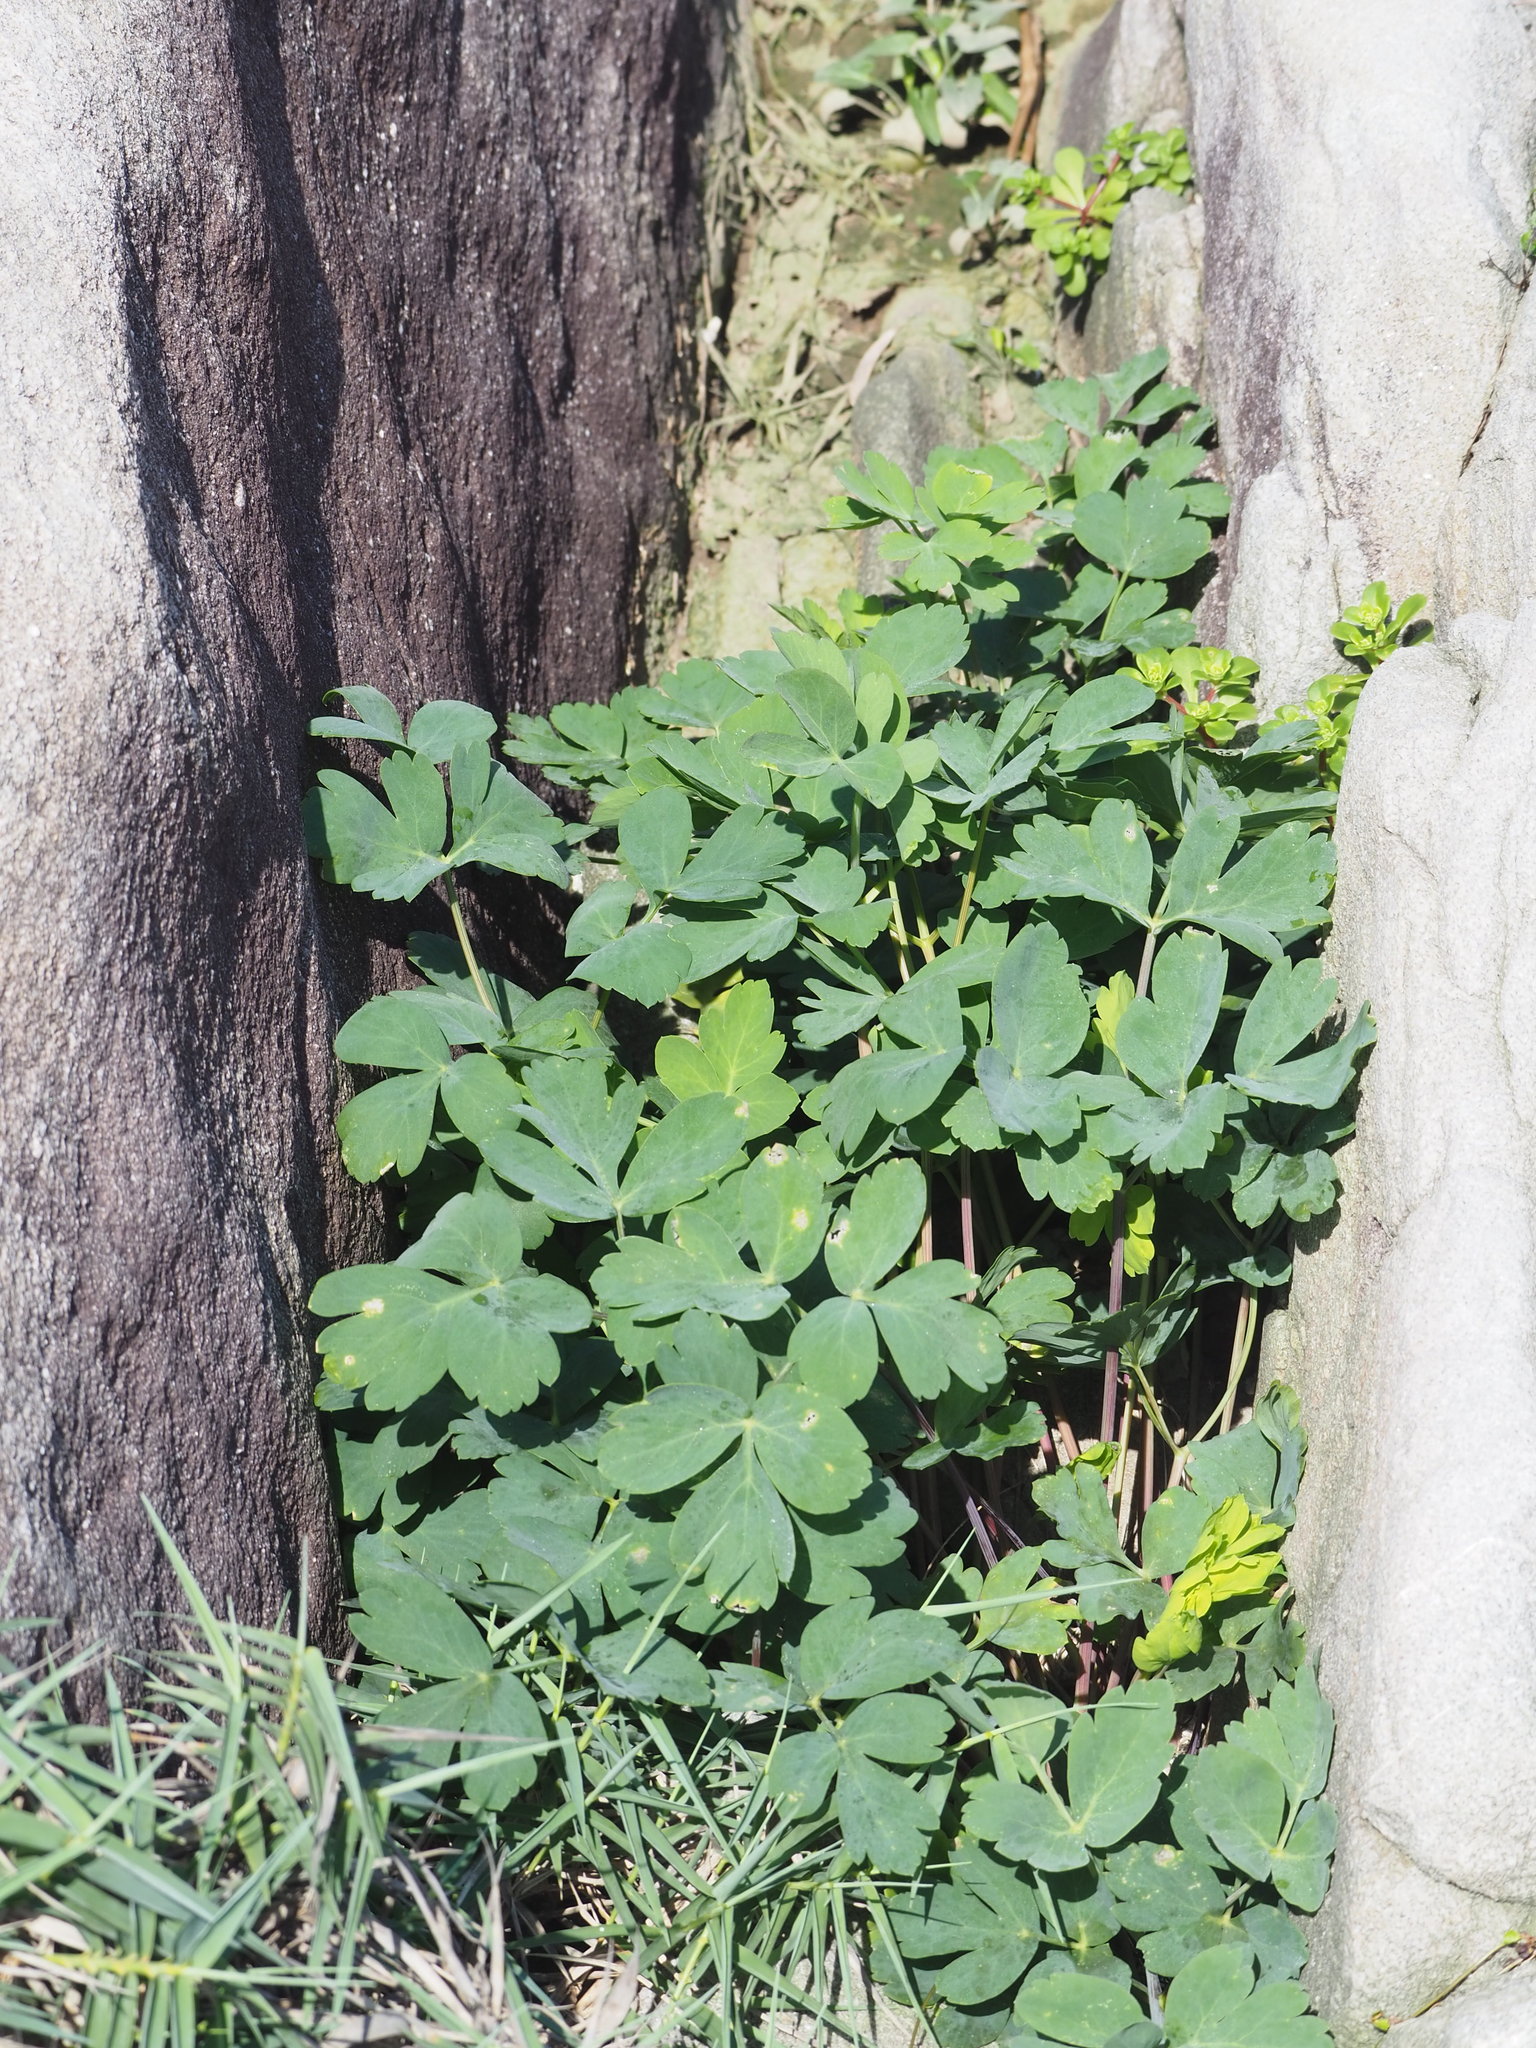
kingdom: Plantae
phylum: Tracheophyta
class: Magnoliopsida
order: Apiales
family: Apiaceae
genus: Peucedanum
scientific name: Peucedanum japonicum
